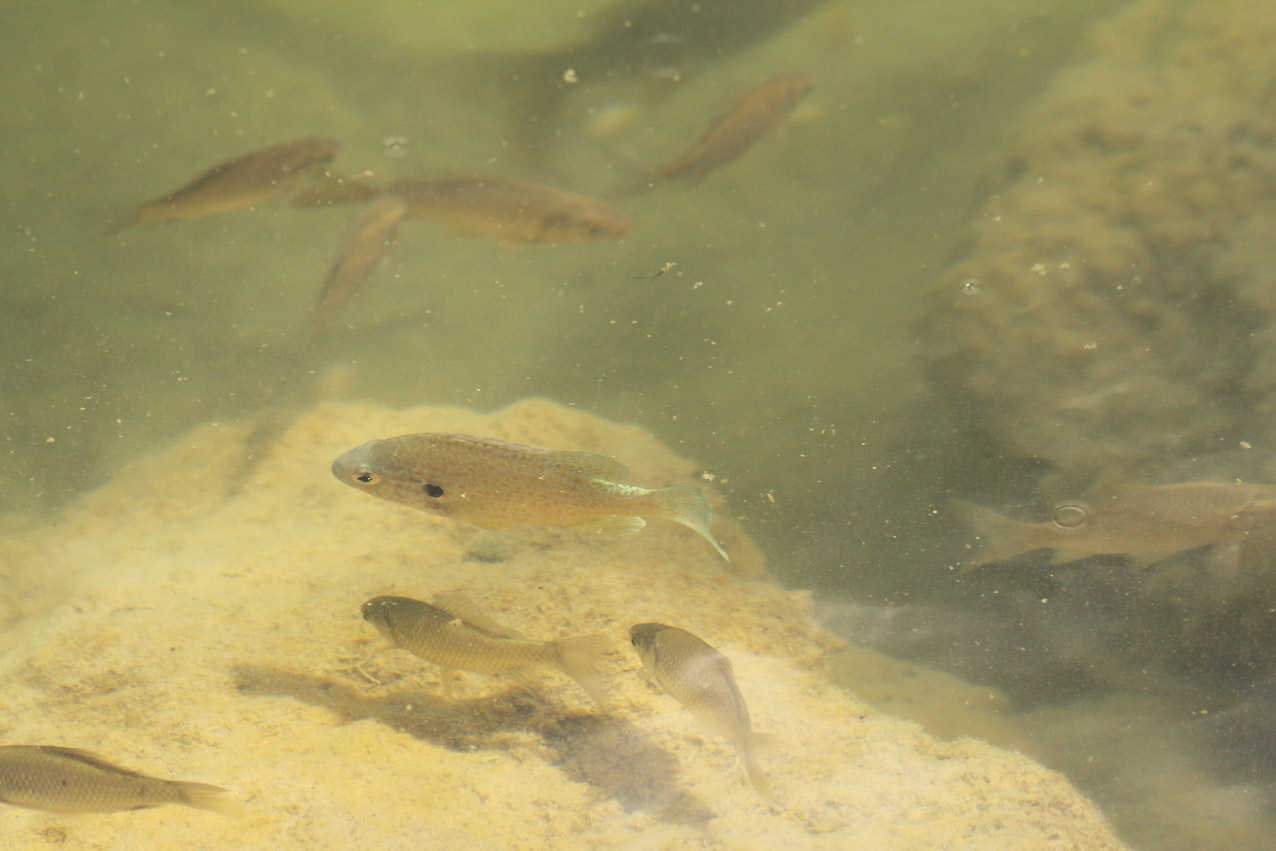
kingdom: Animalia
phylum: Chordata
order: Perciformes
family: Centrarchidae
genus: Lepomis
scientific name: Lepomis gibbosus
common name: Pumpkinseed
